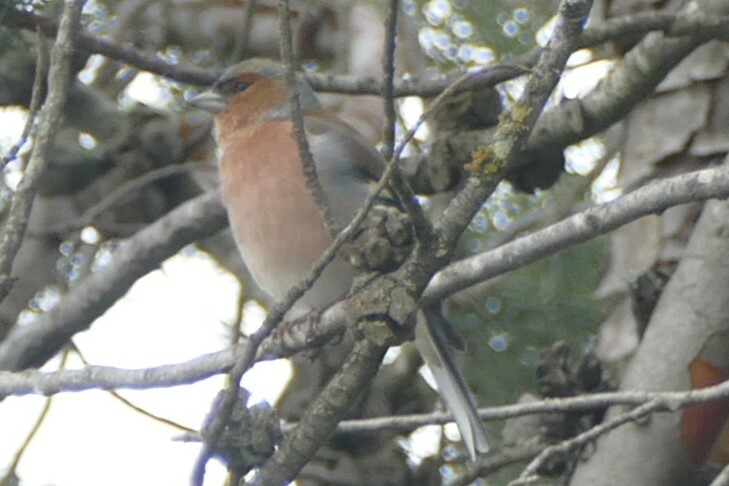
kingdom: Animalia
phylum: Chordata
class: Aves
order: Passeriformes
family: Fringillidae
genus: Fringilla
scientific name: Fringilla coelebs
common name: Common chaffinch
